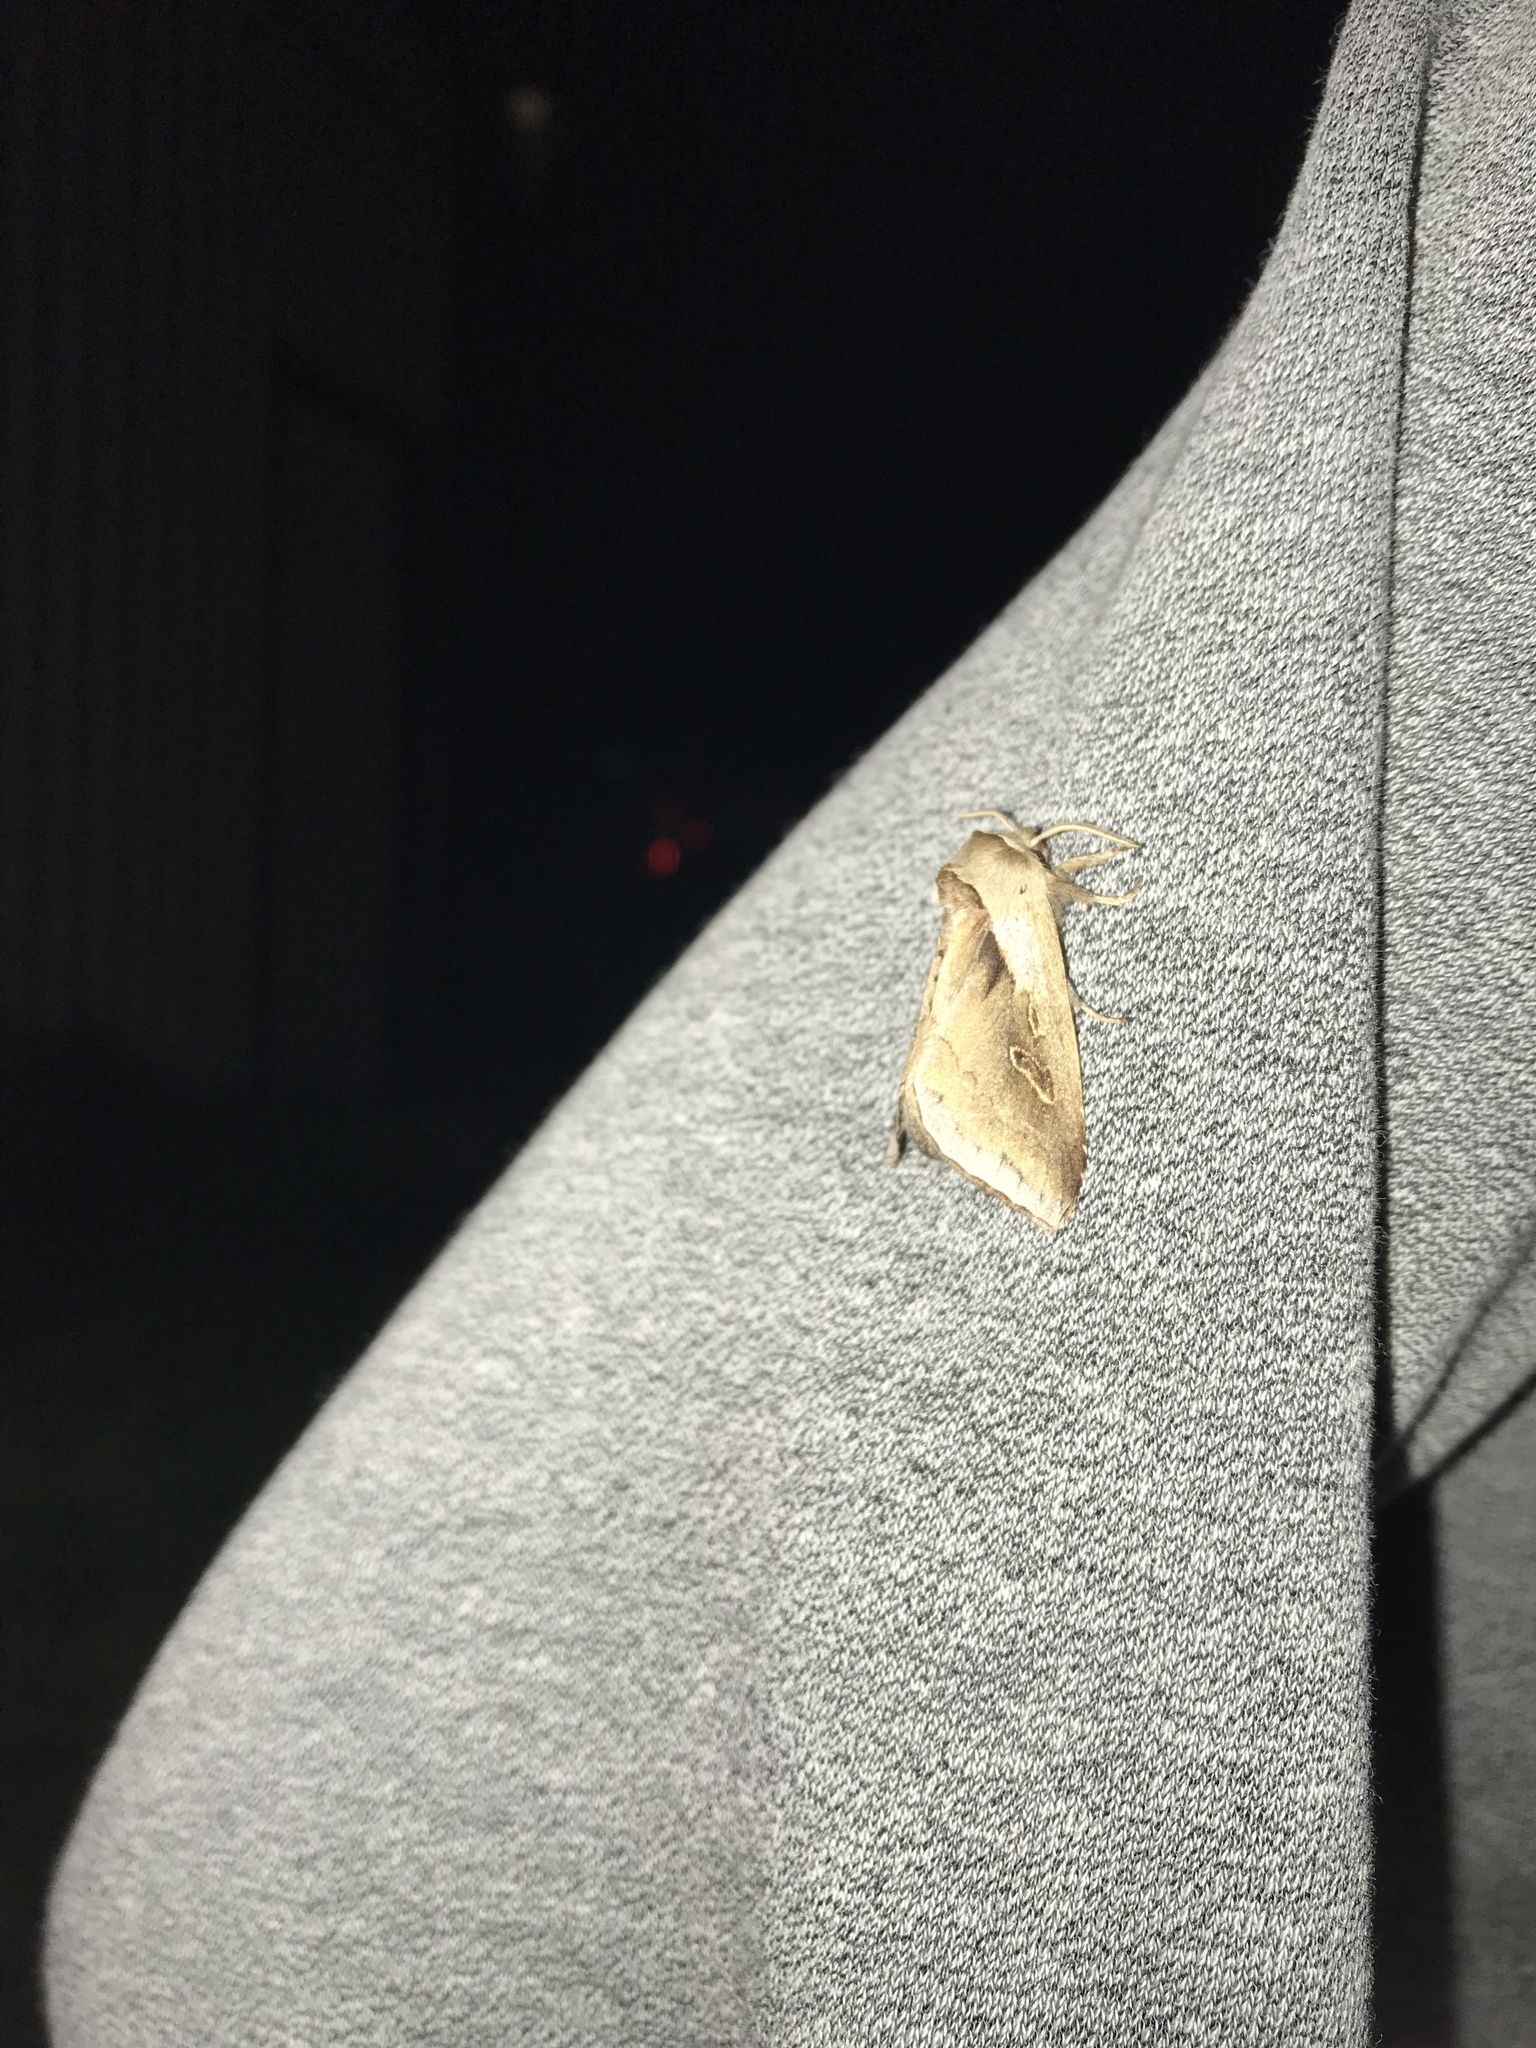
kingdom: Animalia
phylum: Arthropoda
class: Insecta
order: Lepidoptera
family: Noctuidae
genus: Bellura
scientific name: Bellura obliqua
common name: Cattail borer moth
